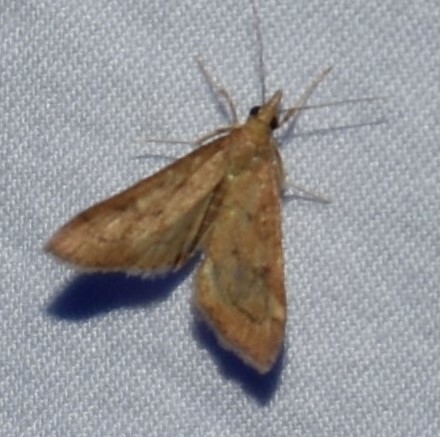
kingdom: Animalia
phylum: Arthropoda
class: Insecta
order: Lepidoptera
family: Crambidae
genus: Udea
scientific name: Udea rubigalis
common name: Celery leaftier moth
